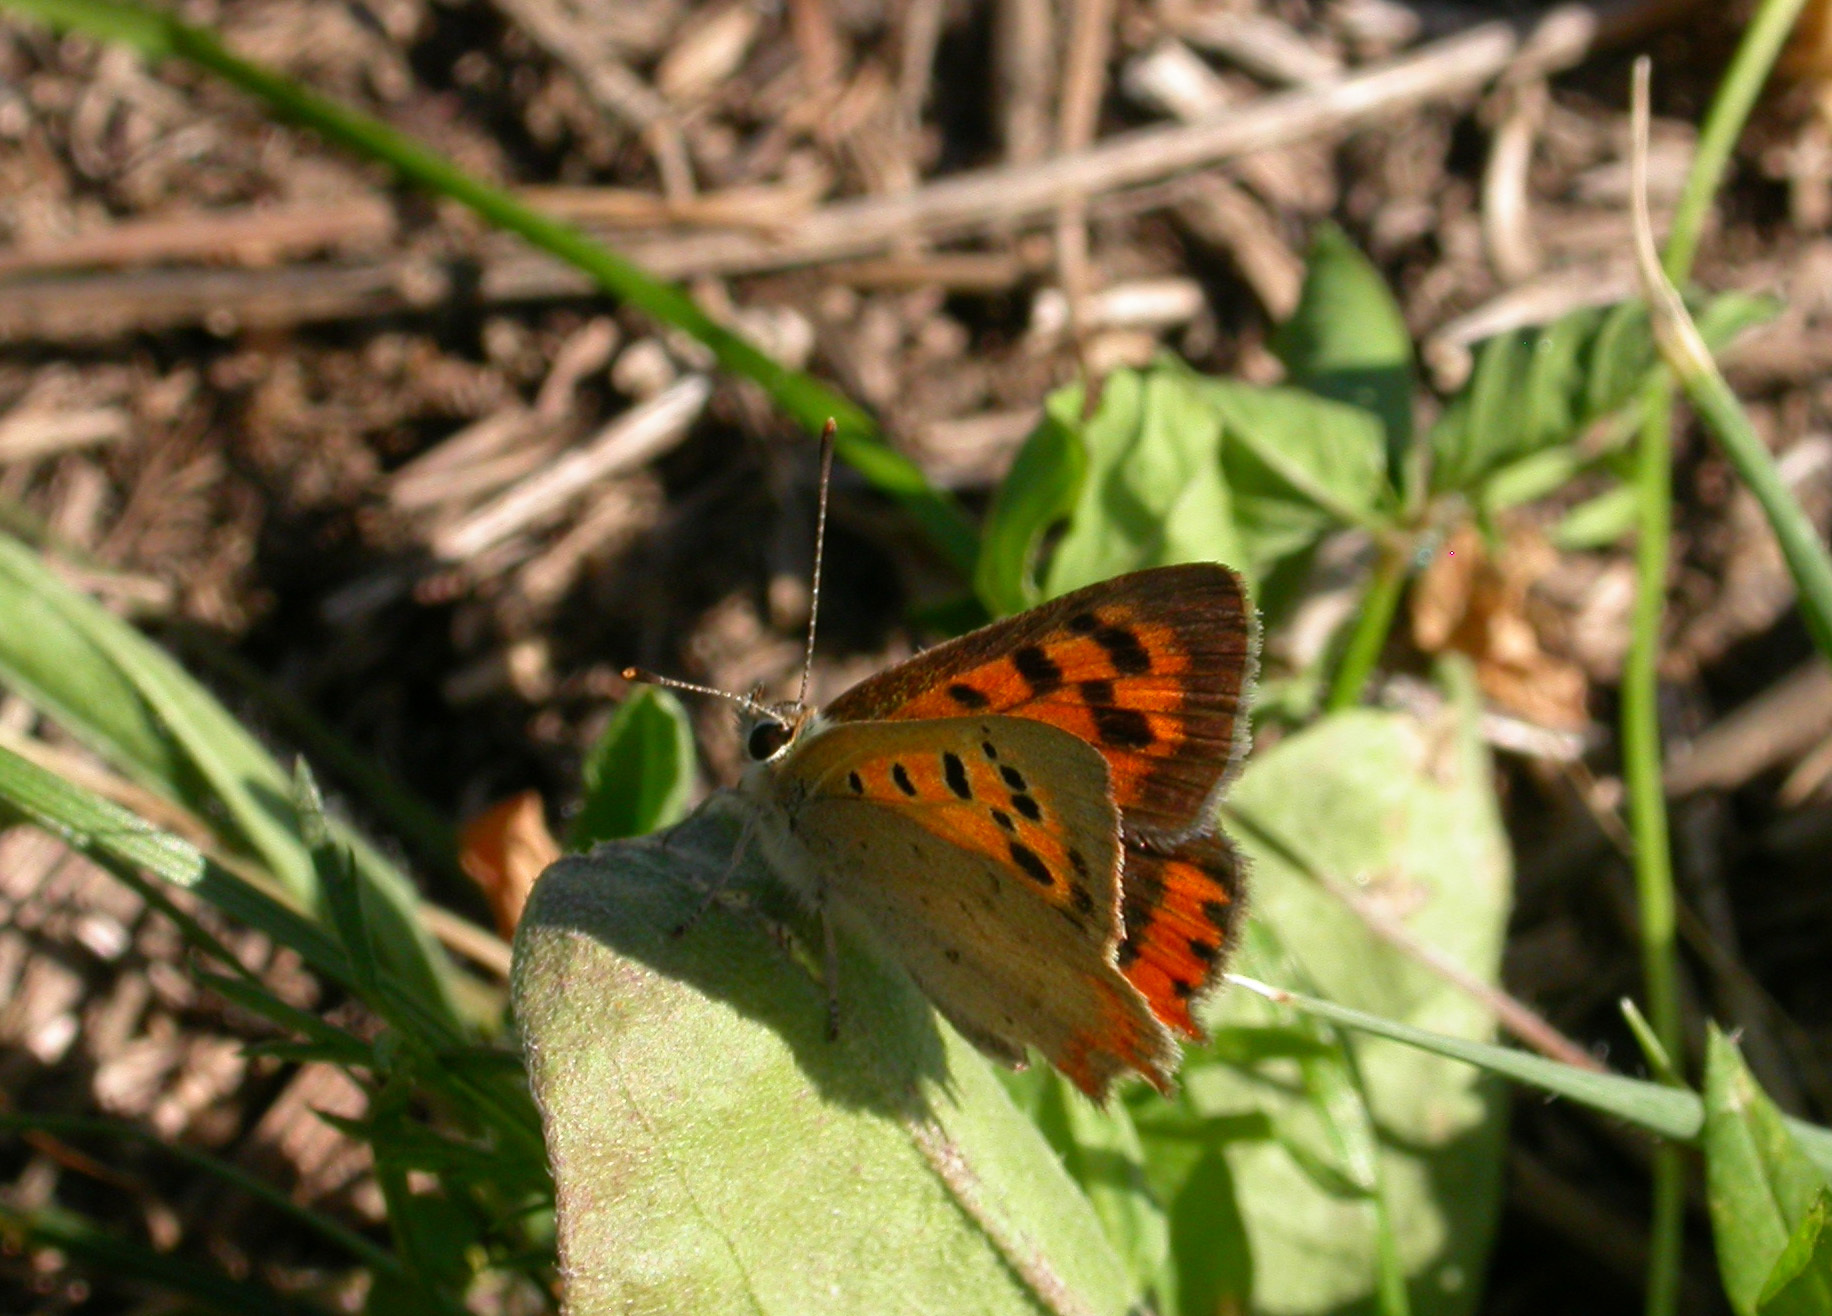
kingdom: Animalia
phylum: Arthropoda
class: Insecta
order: Lepidoptera
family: Lycaenidae
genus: Lycaena
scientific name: Lycaena phlaeas
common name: Small copper
